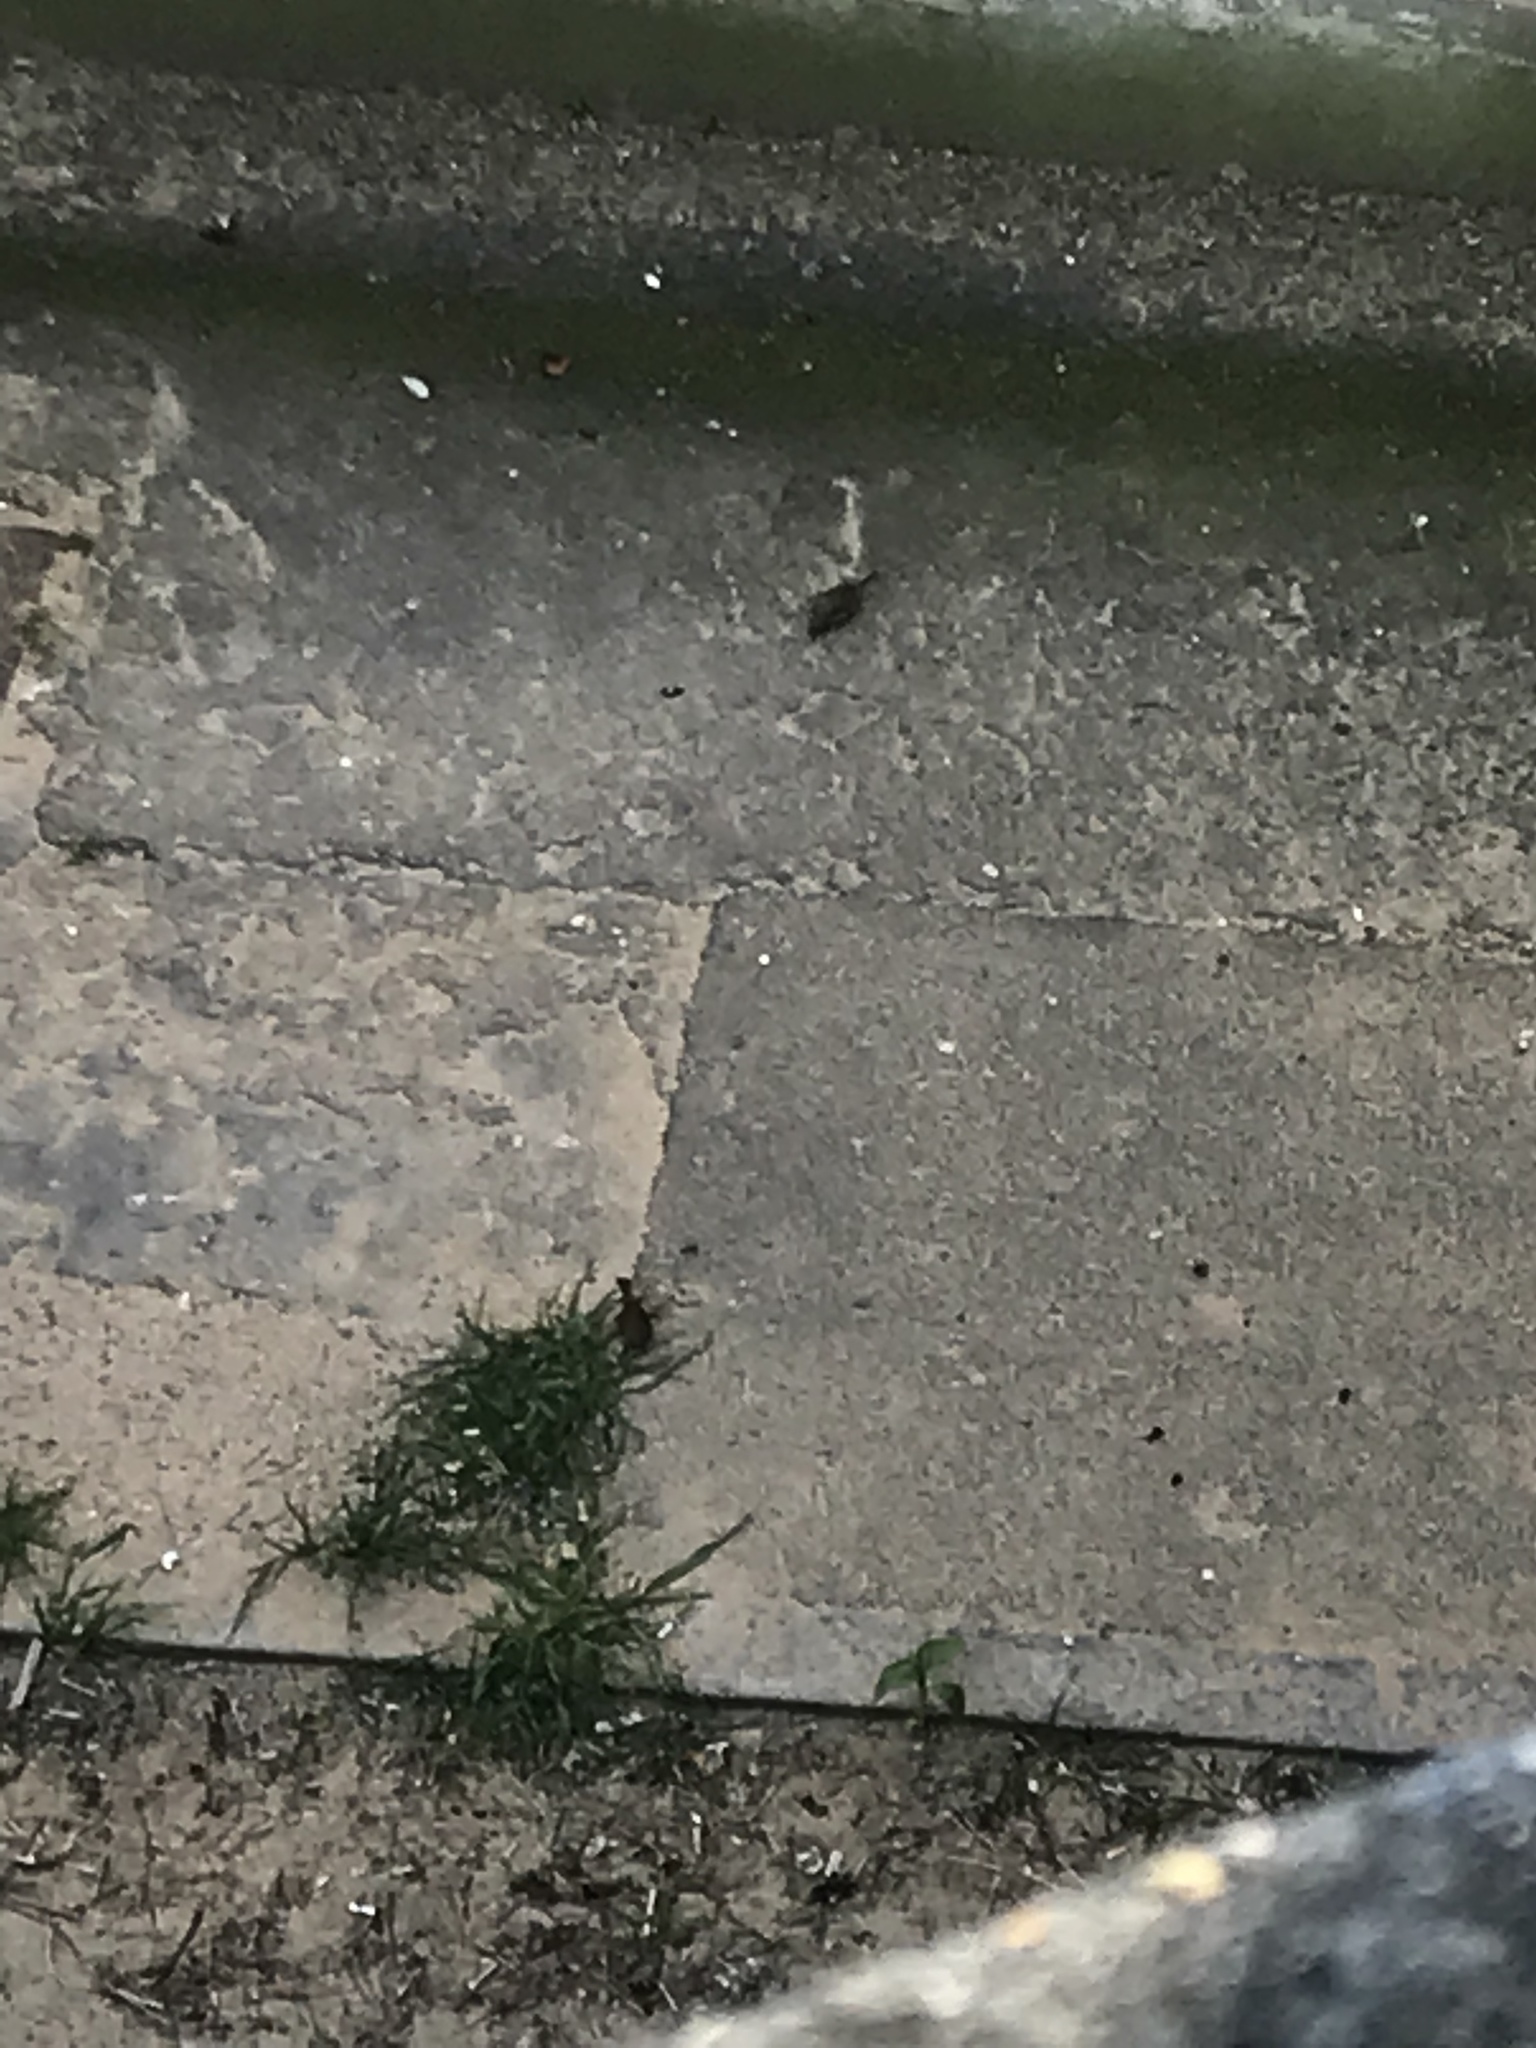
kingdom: Animalia
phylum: Chordata
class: Aves
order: Passeriformes
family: Prunellidae
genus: Prunella
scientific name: Prunella modularis
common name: Dunnock
